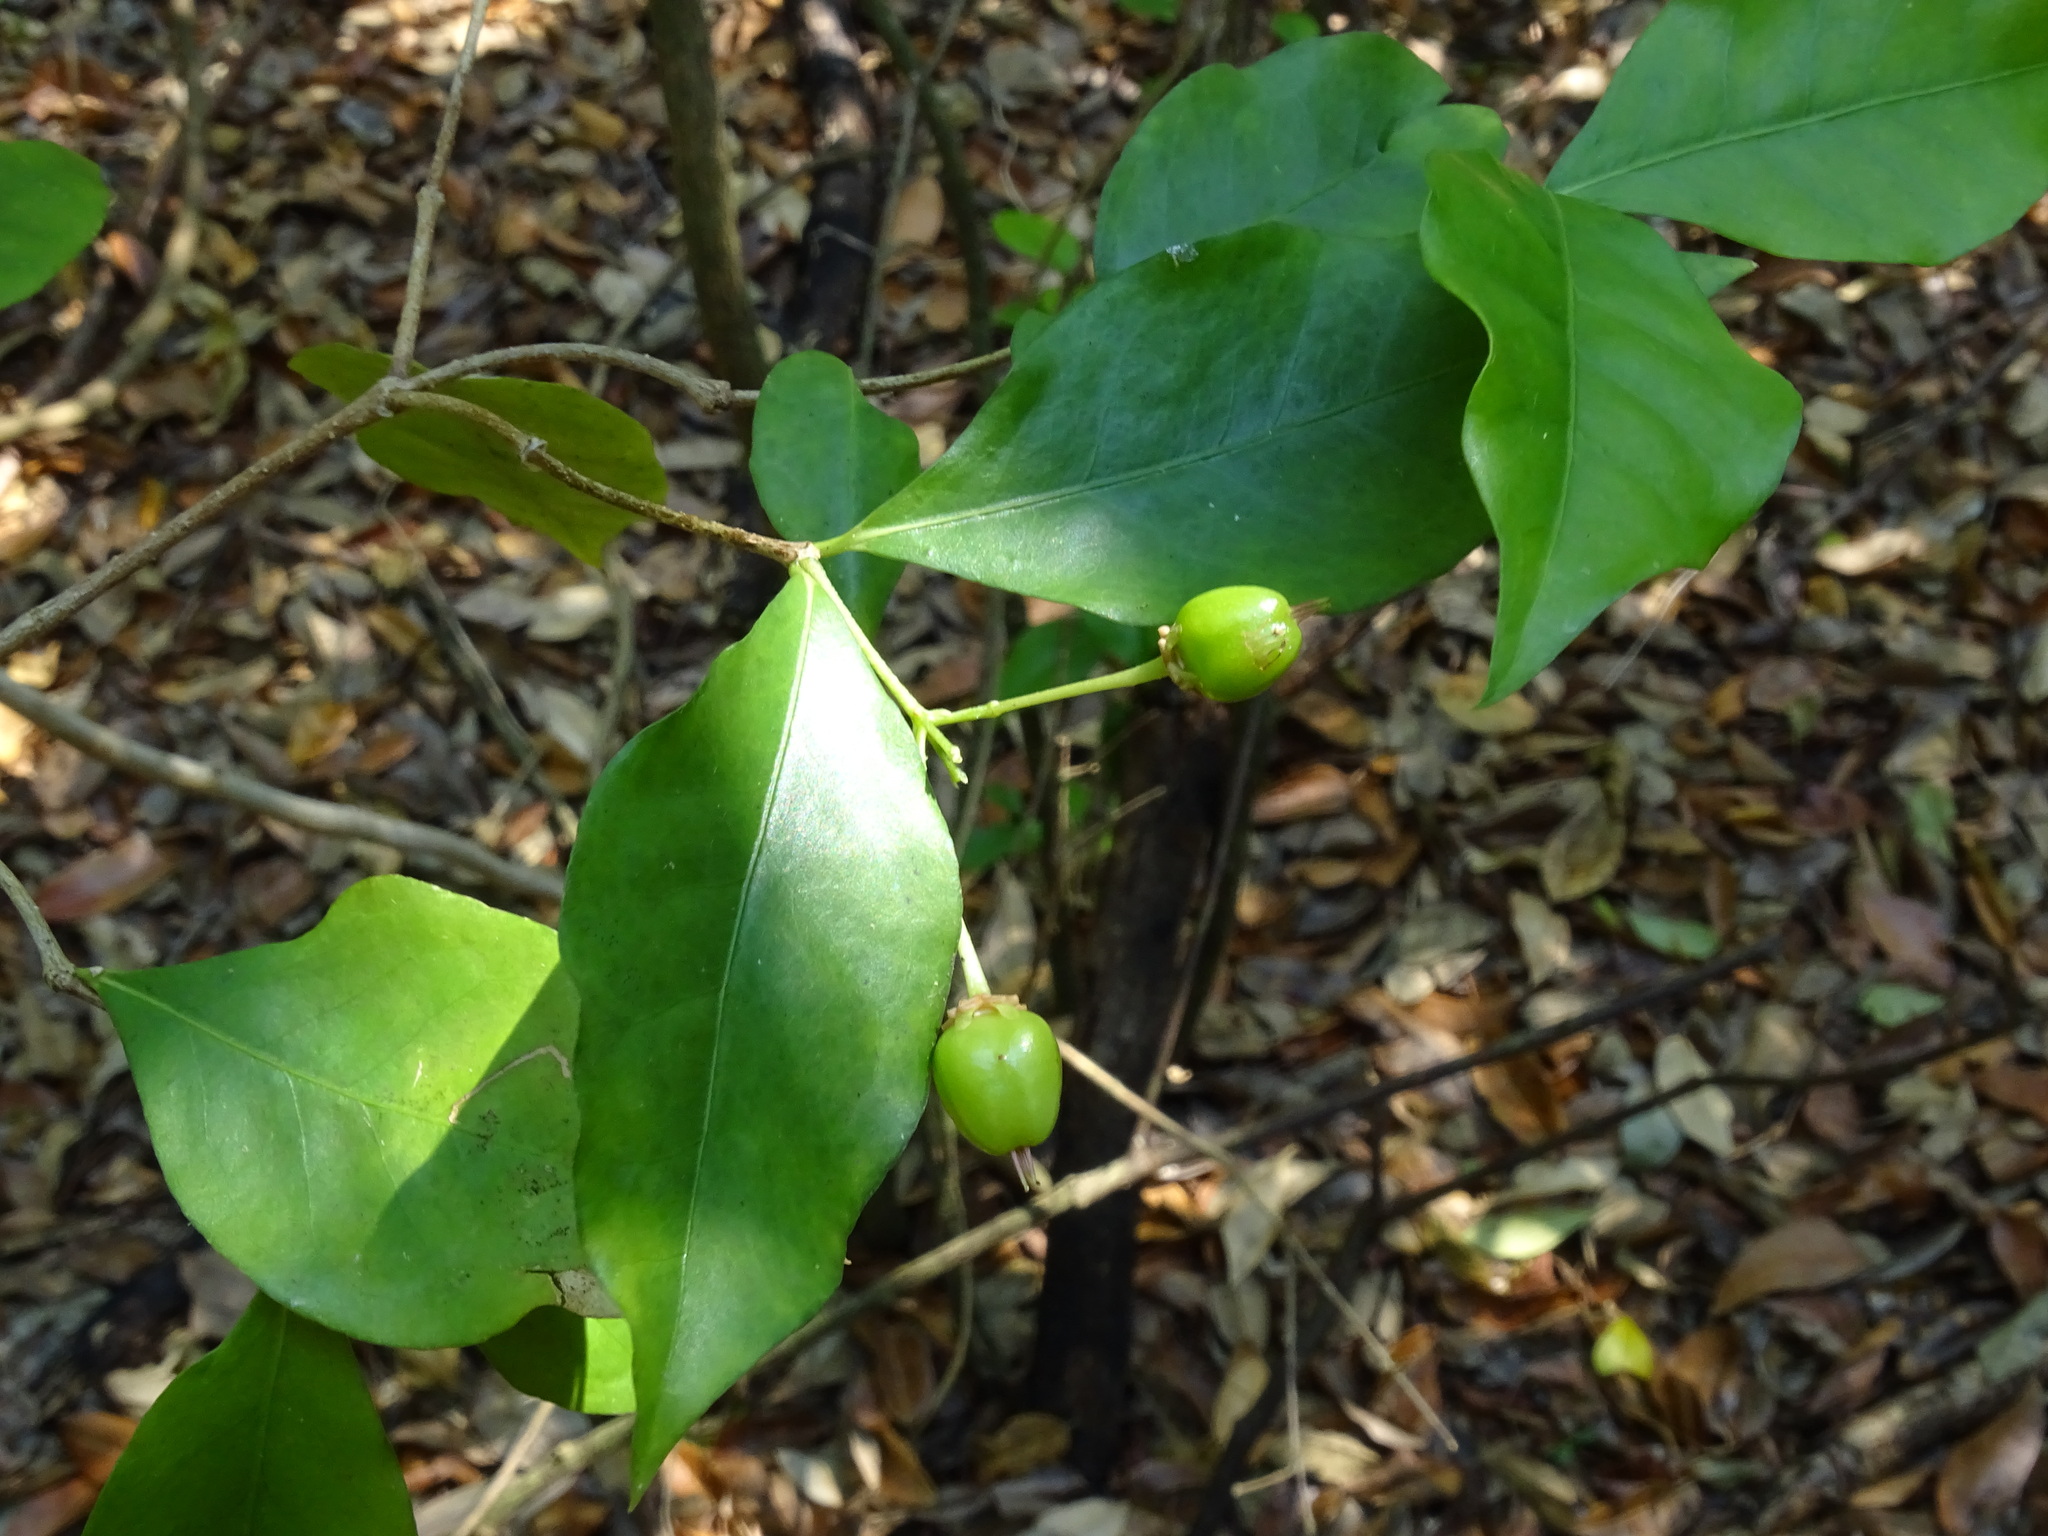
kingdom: Plantae
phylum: Tracheophyta
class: Magnoliopsida
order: Malpighiales
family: Malpighiaceae
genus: Malpighia
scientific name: Malpighia glabra
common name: Barbados cherry
